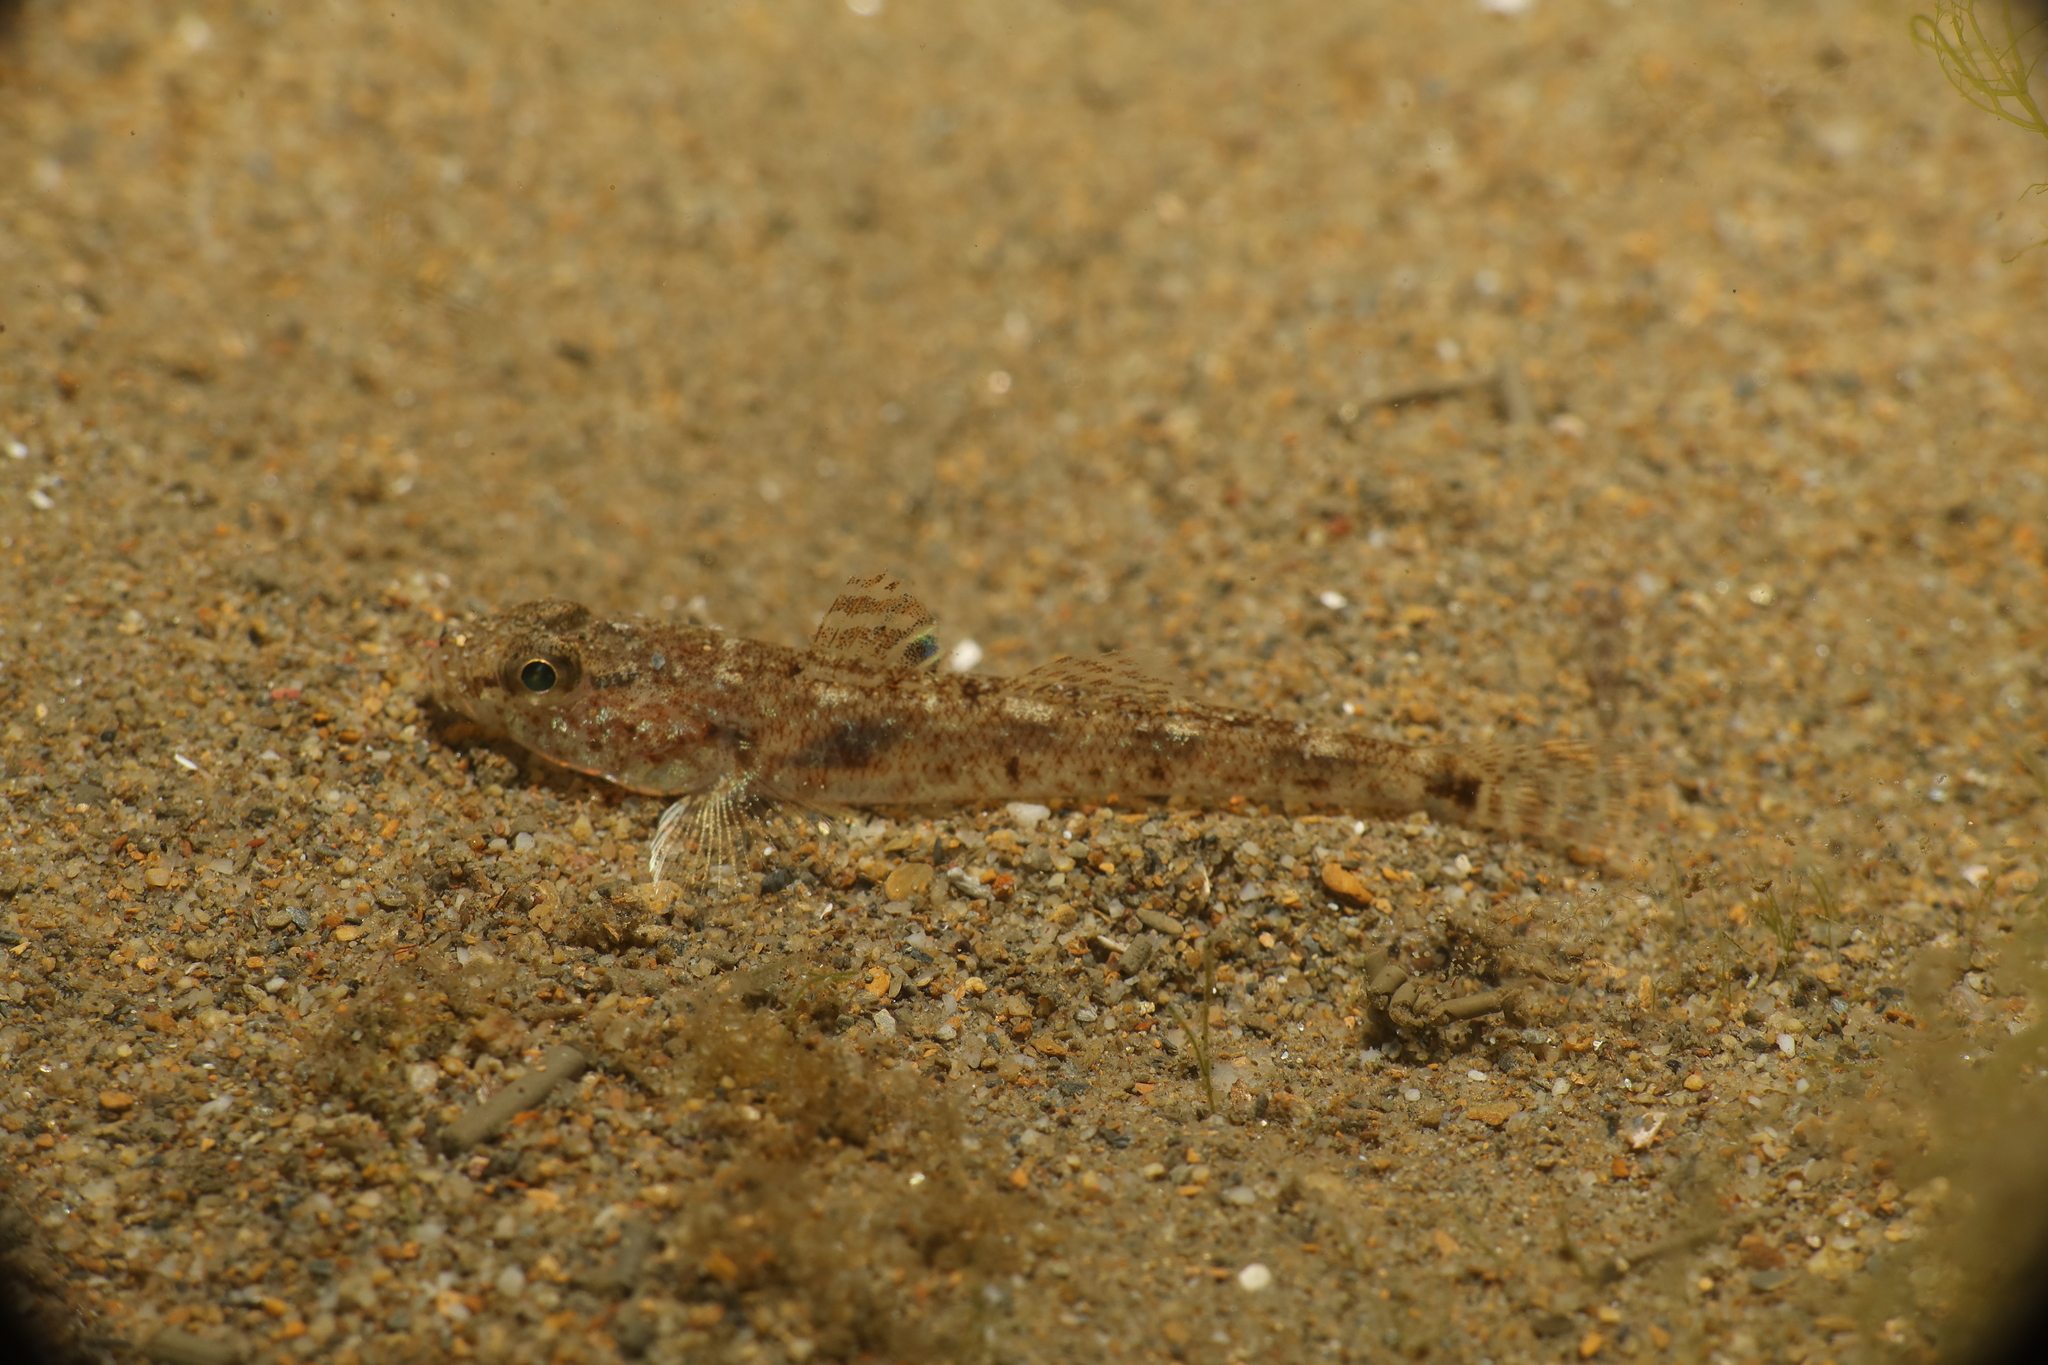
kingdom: Animalia
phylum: Chordata
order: Perciformes
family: Gobiidae
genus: Pomatoschistus
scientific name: Pomatoschistus minutus
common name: Sand goby
